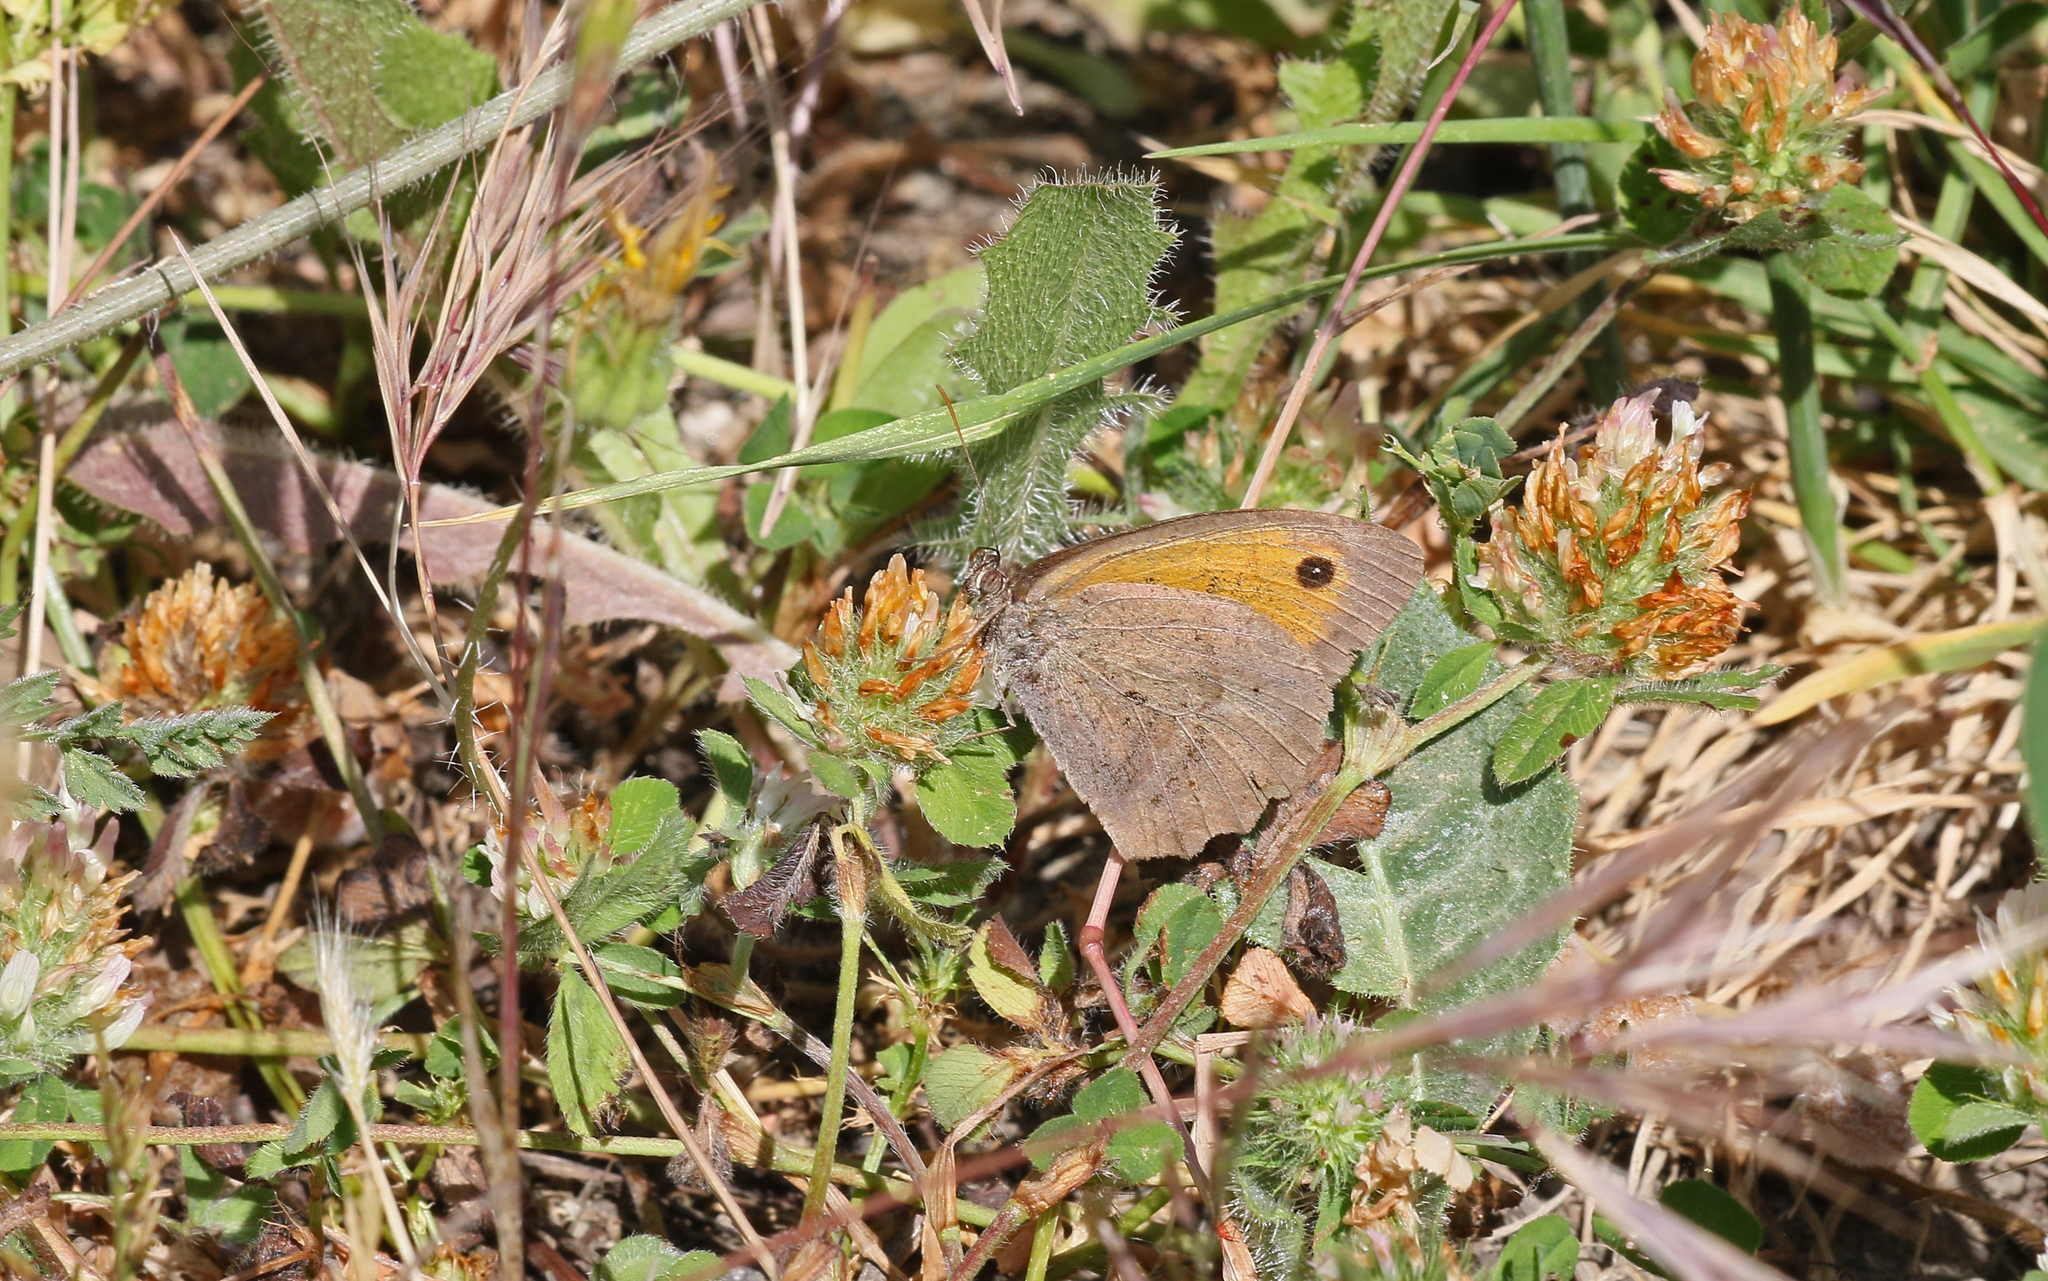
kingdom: Animalia
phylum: Arthropoda
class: Insecta
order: Lepidoptera
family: Nymphalidae
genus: Maniola
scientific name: Maniola jurtina
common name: Meadow brown
